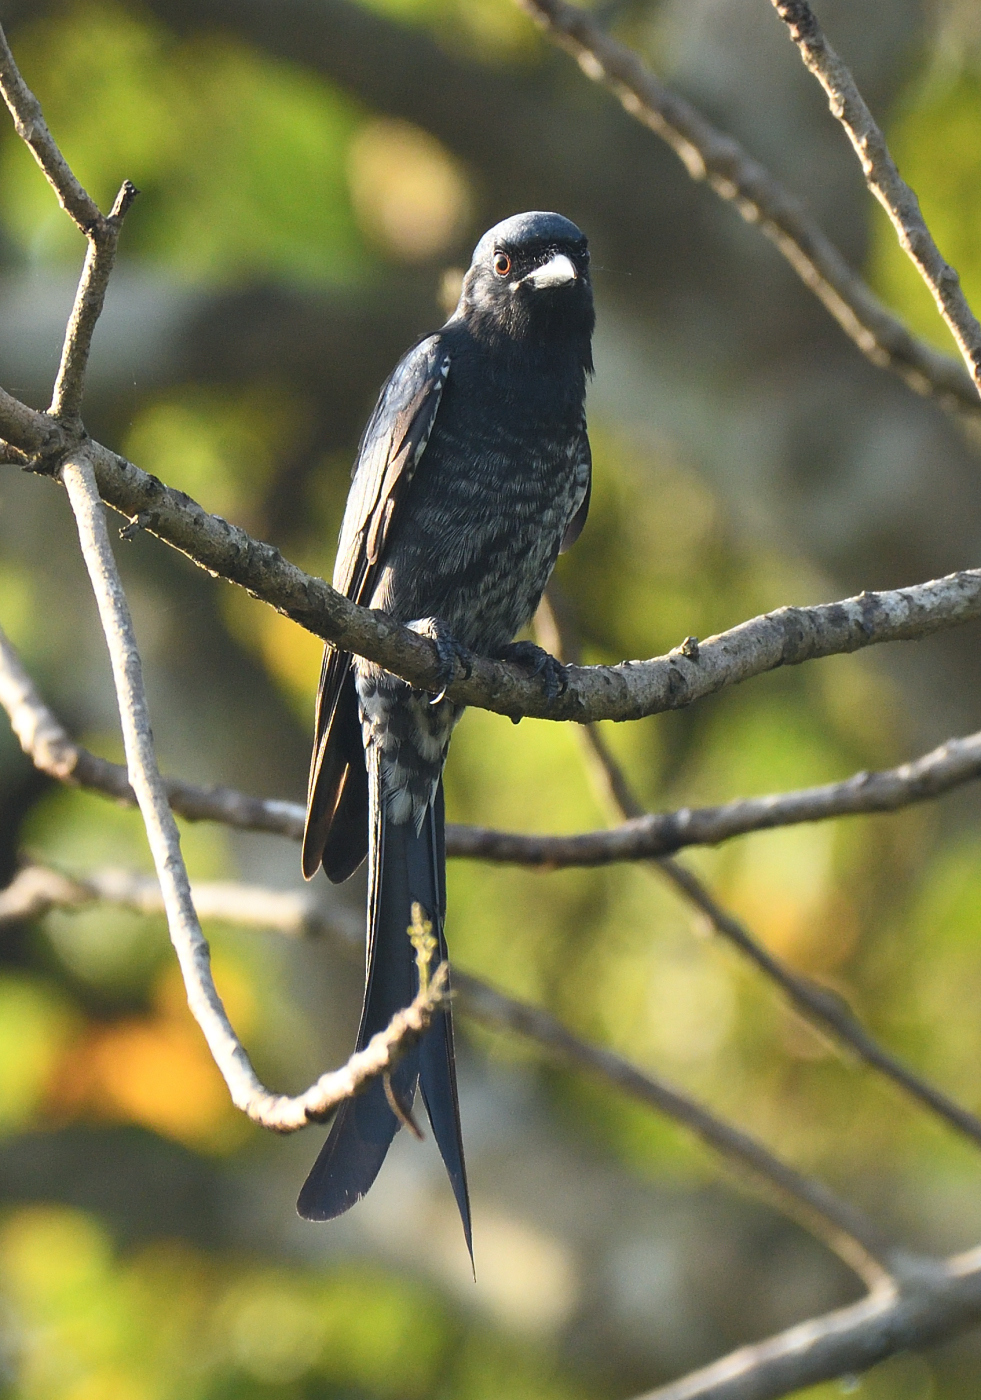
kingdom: Animalia
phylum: Chordata
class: Aves
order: Passeriformes
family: Dicruridae
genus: Dicrurus
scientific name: Dicrurus macrocercus
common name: Black drongo
